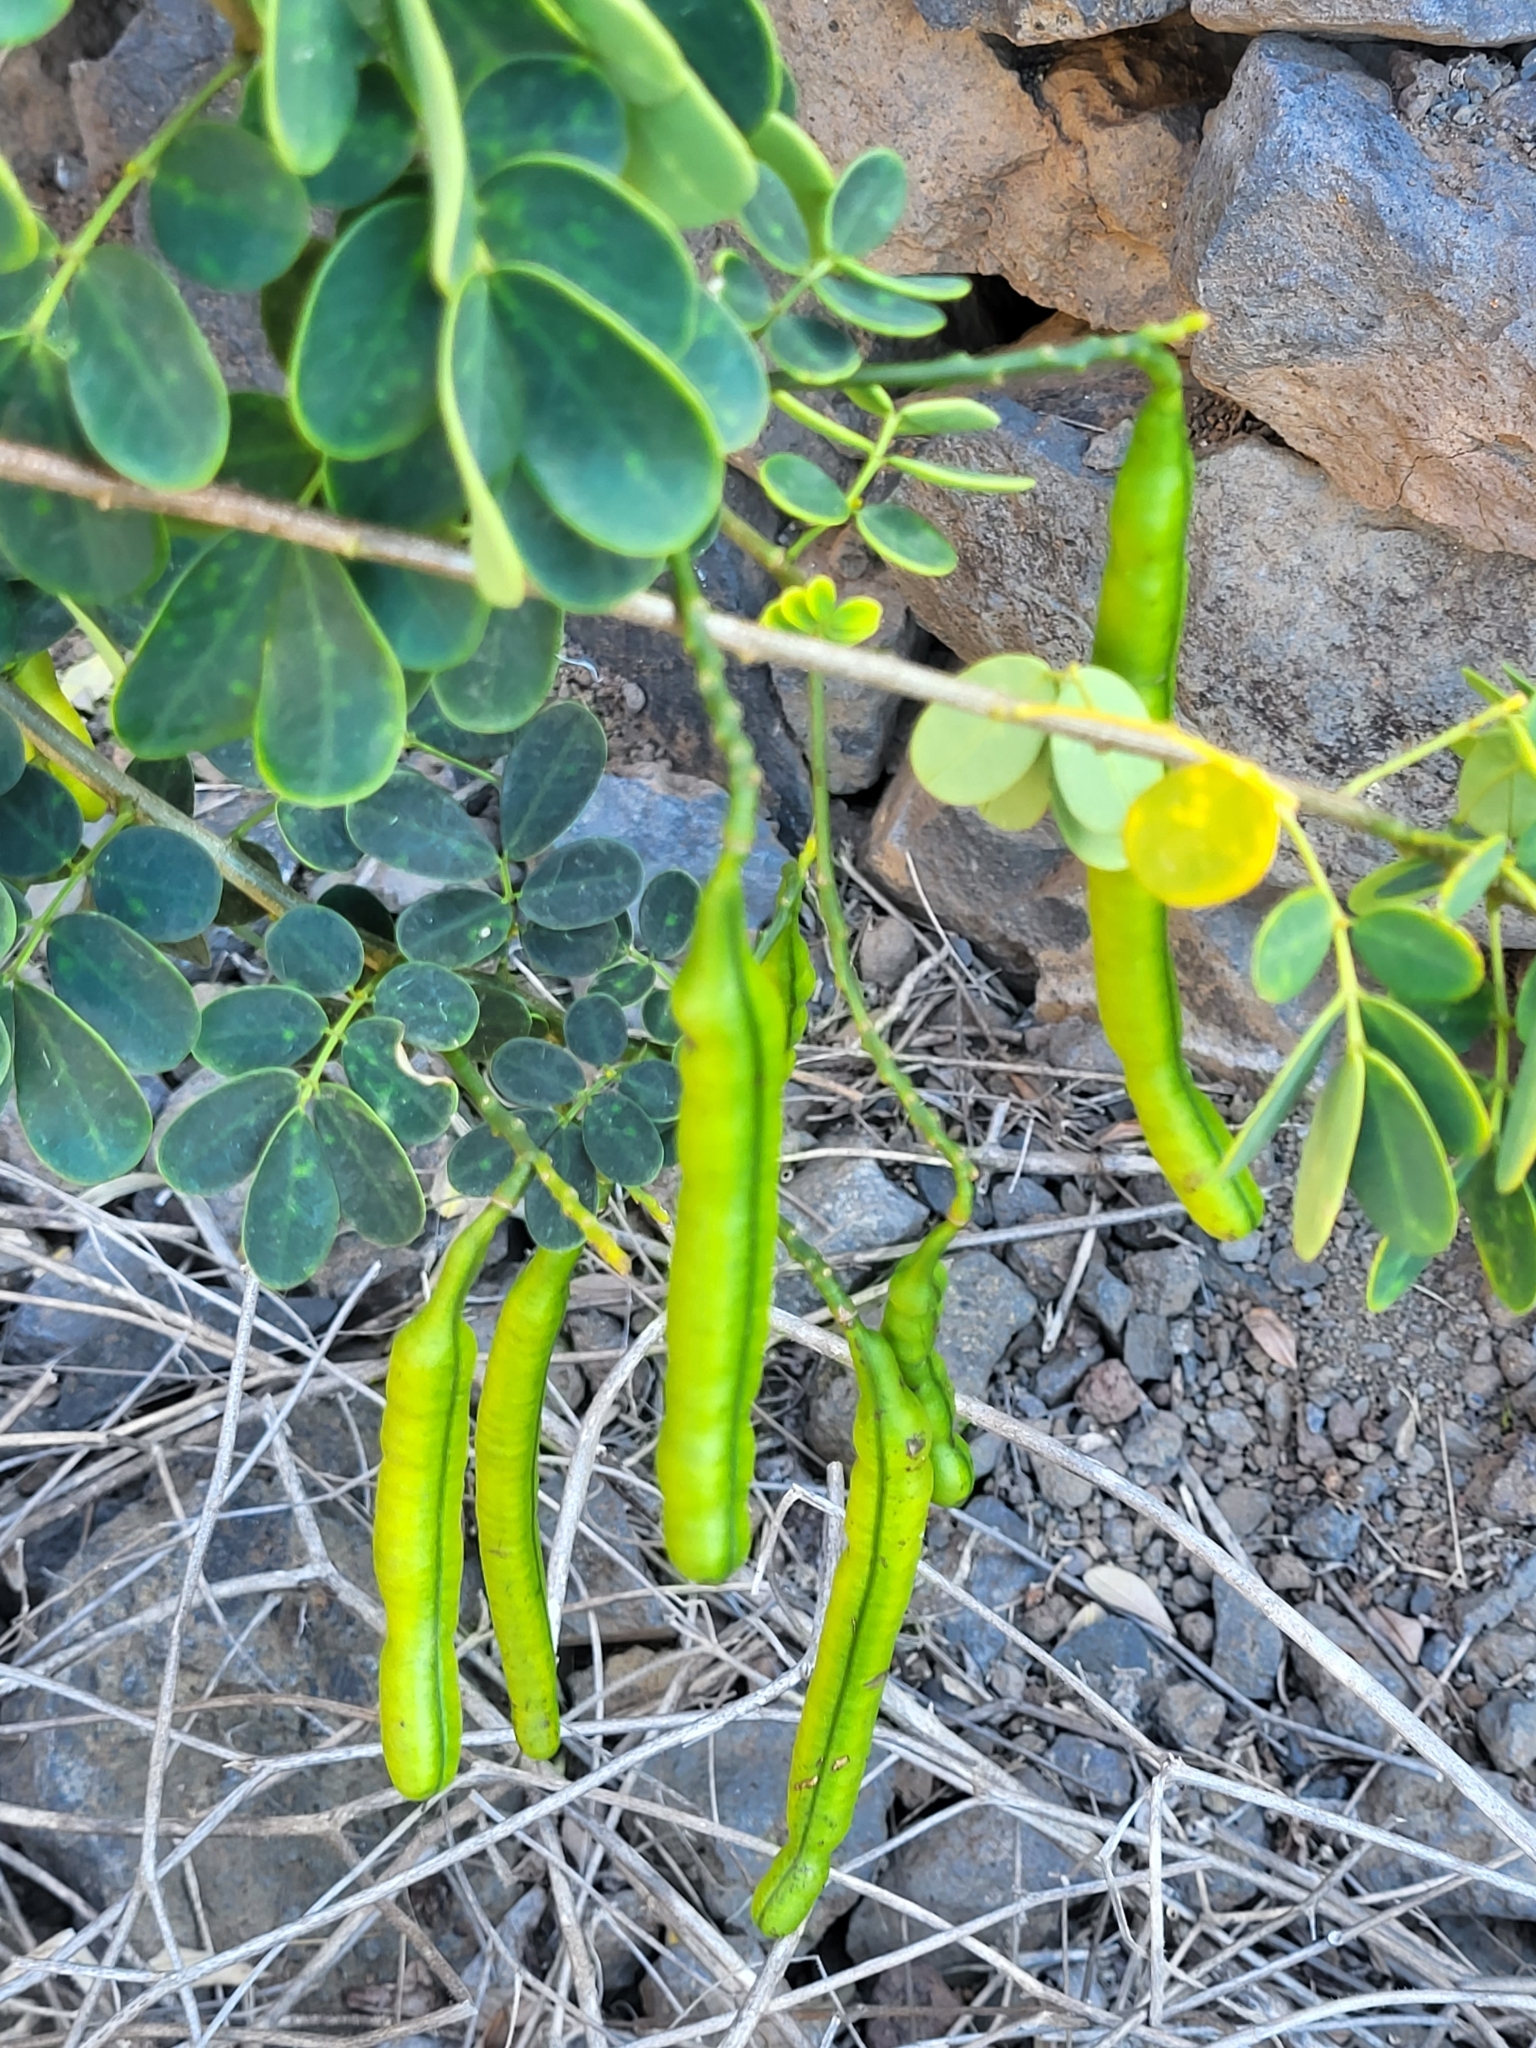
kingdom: Plantae
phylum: Tracheophyta
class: Magnoliopsida
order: Fabales
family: Fabaceae
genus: Senna
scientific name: Senna bicapsularis
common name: Christmasbush
